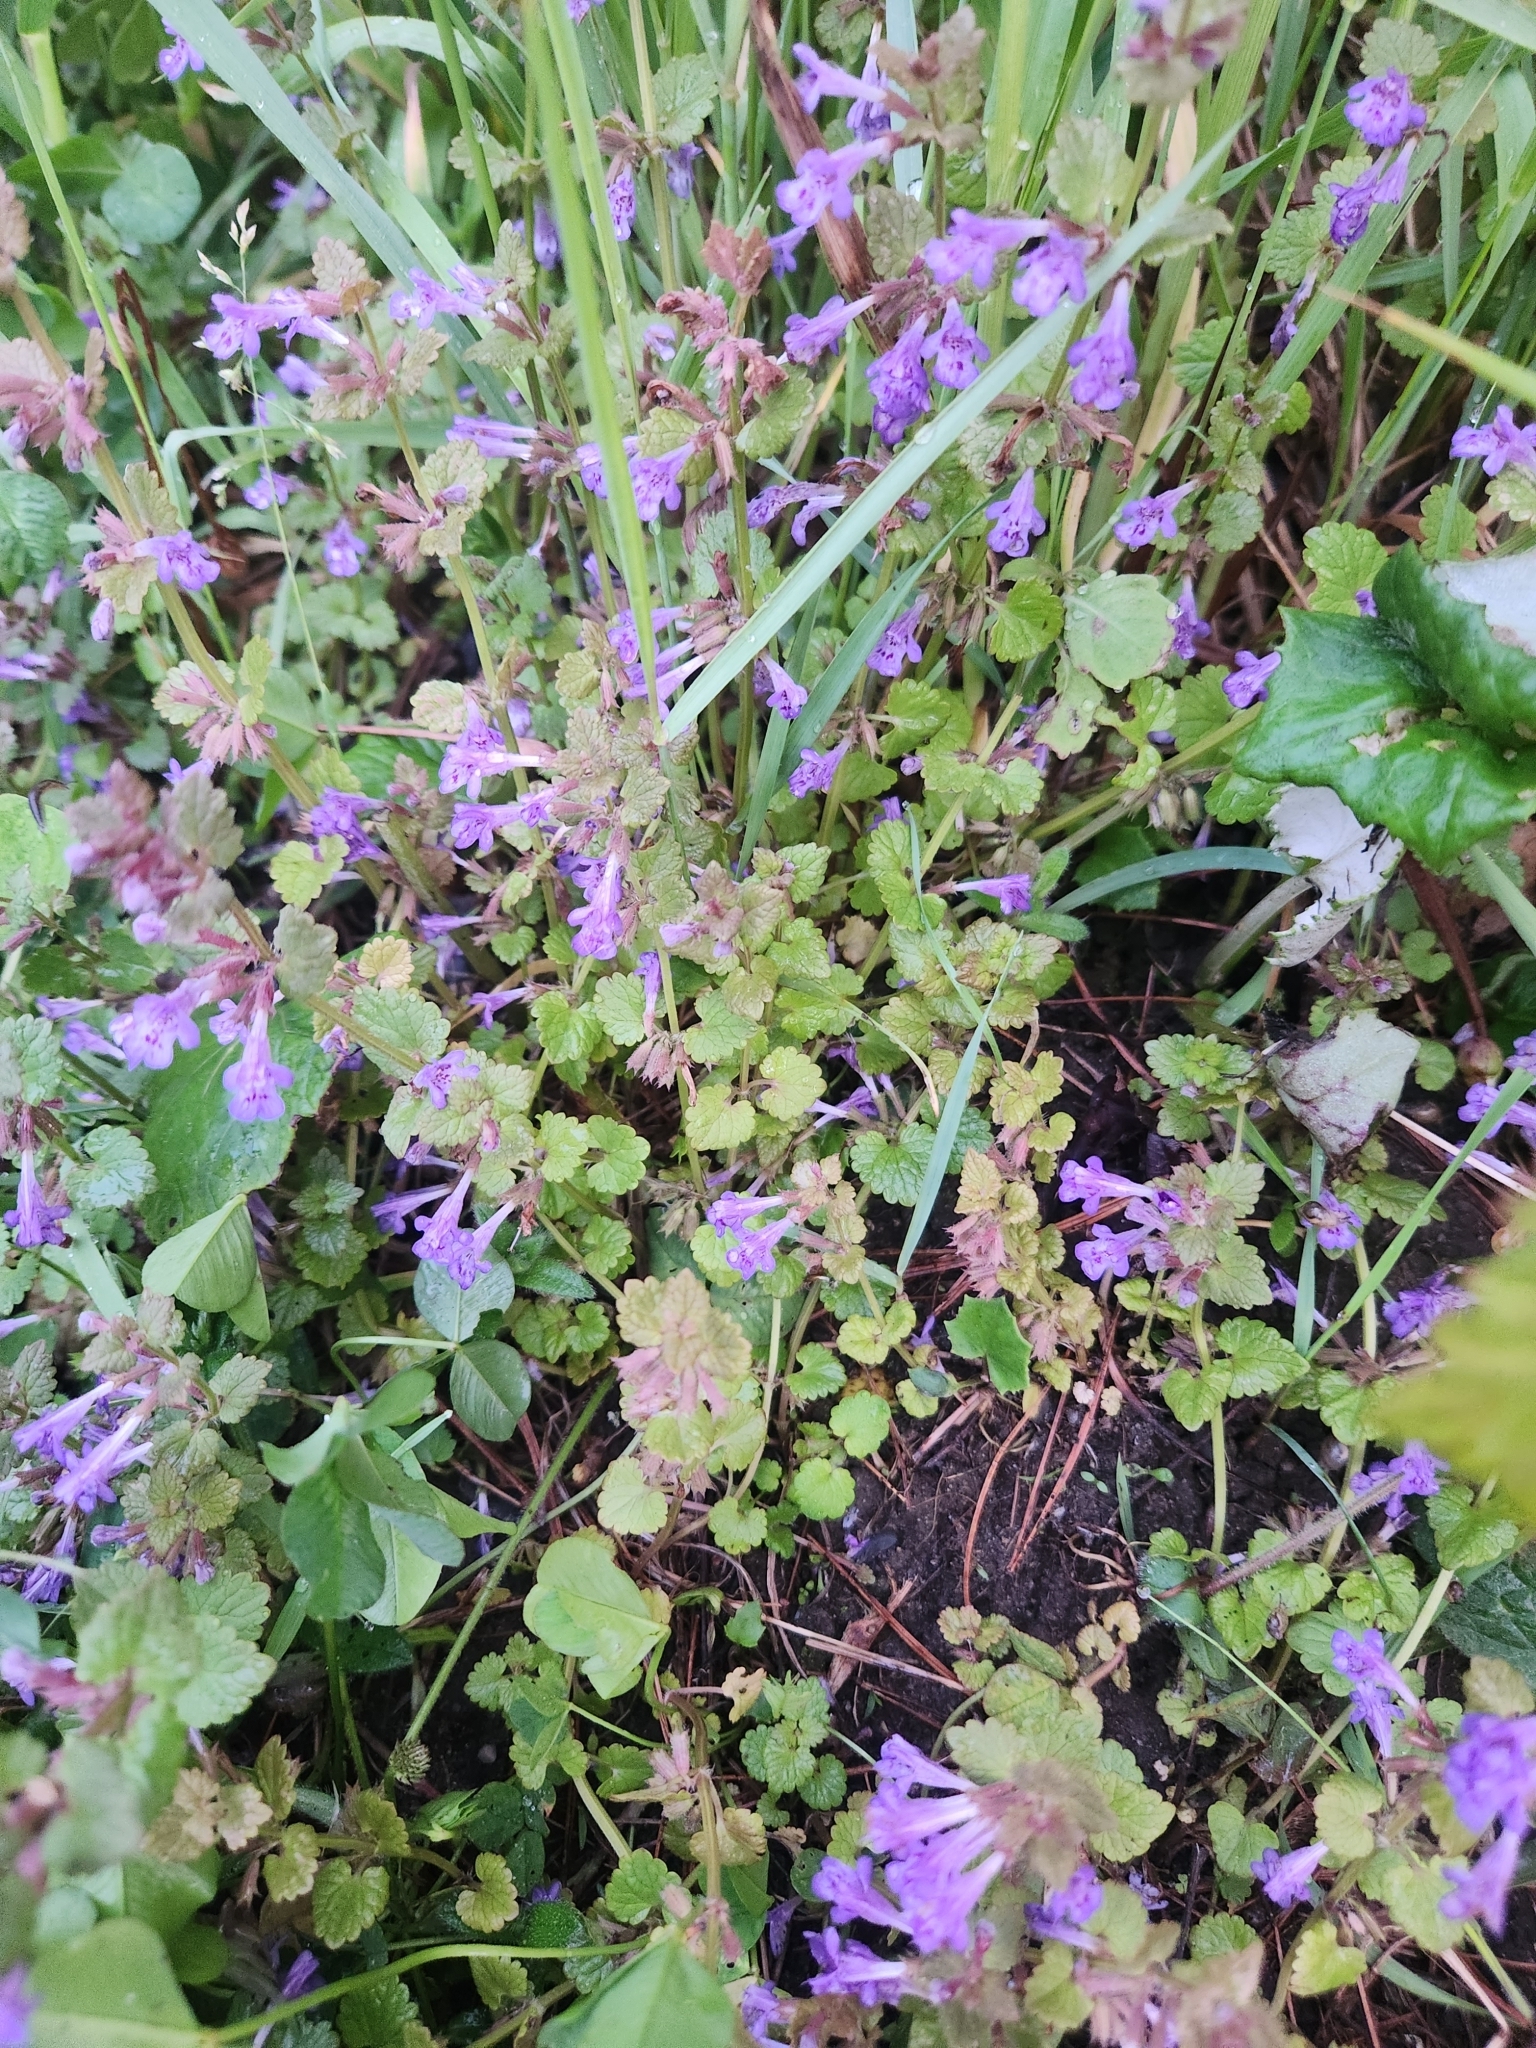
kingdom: Plantae
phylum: Tracheophyta
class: Magnoliopsida
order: Lamiales
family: Lamiaceae
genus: Glechoma
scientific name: Glechoma hederacea
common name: Ground ivy
